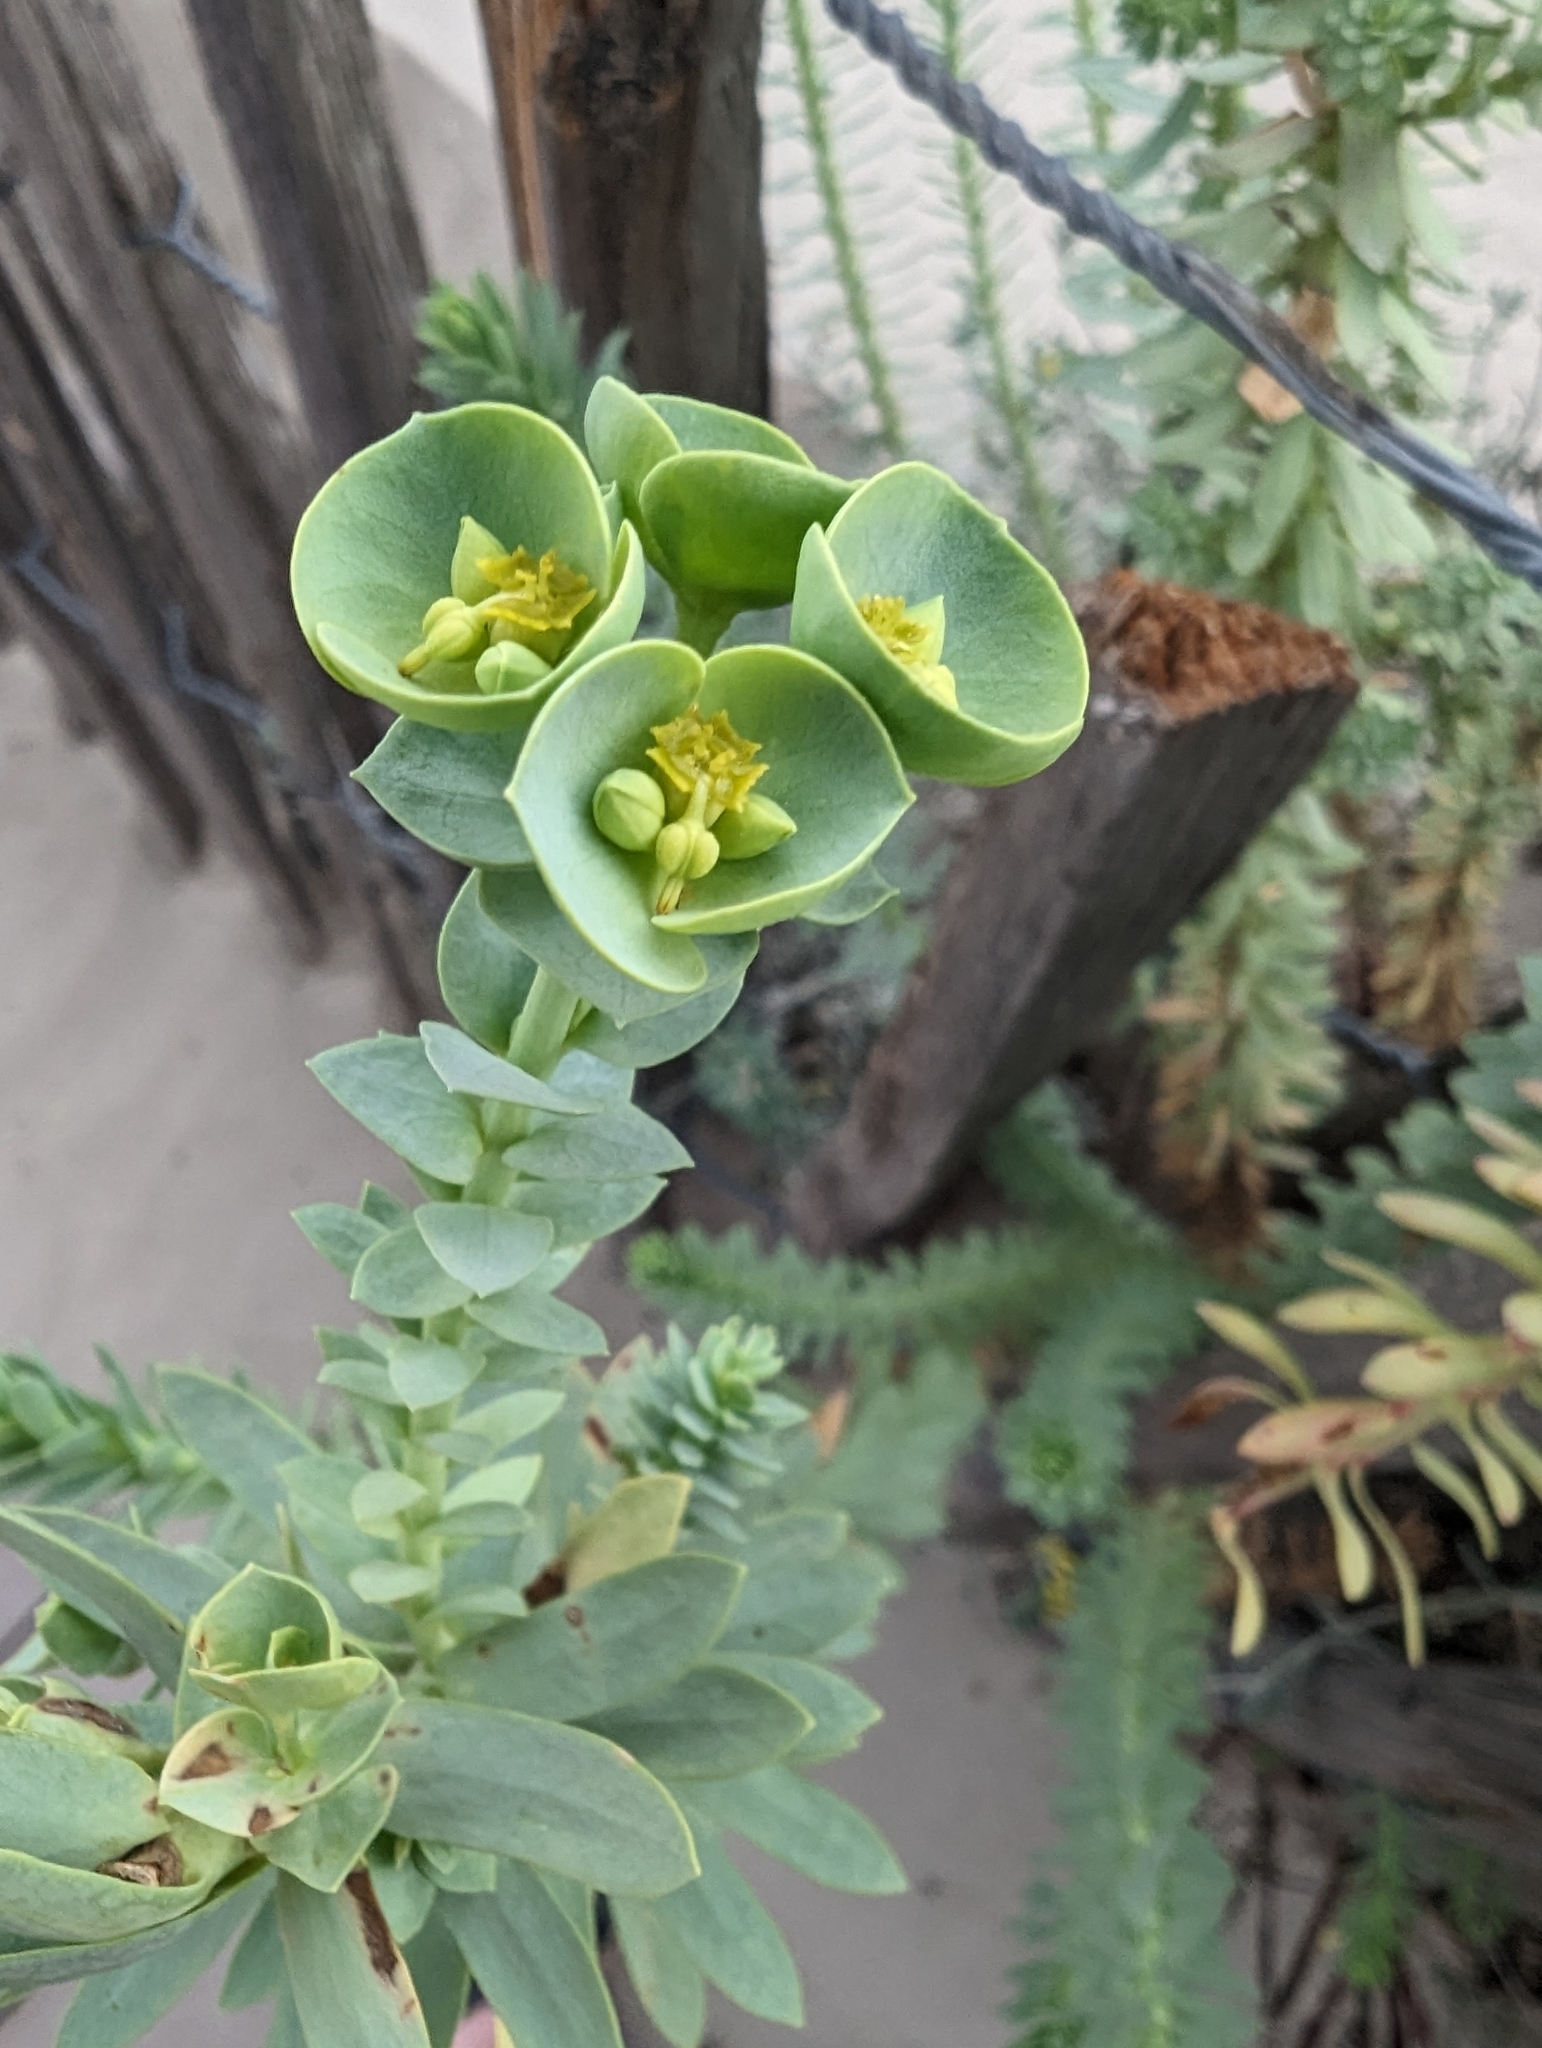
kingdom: Plantae
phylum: Tracheophyta
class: Magnoliopsida
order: Malpighiales
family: Euphorbiaceae
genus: Euphorbia
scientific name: Euphorbia paralias
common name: Sea spurge
